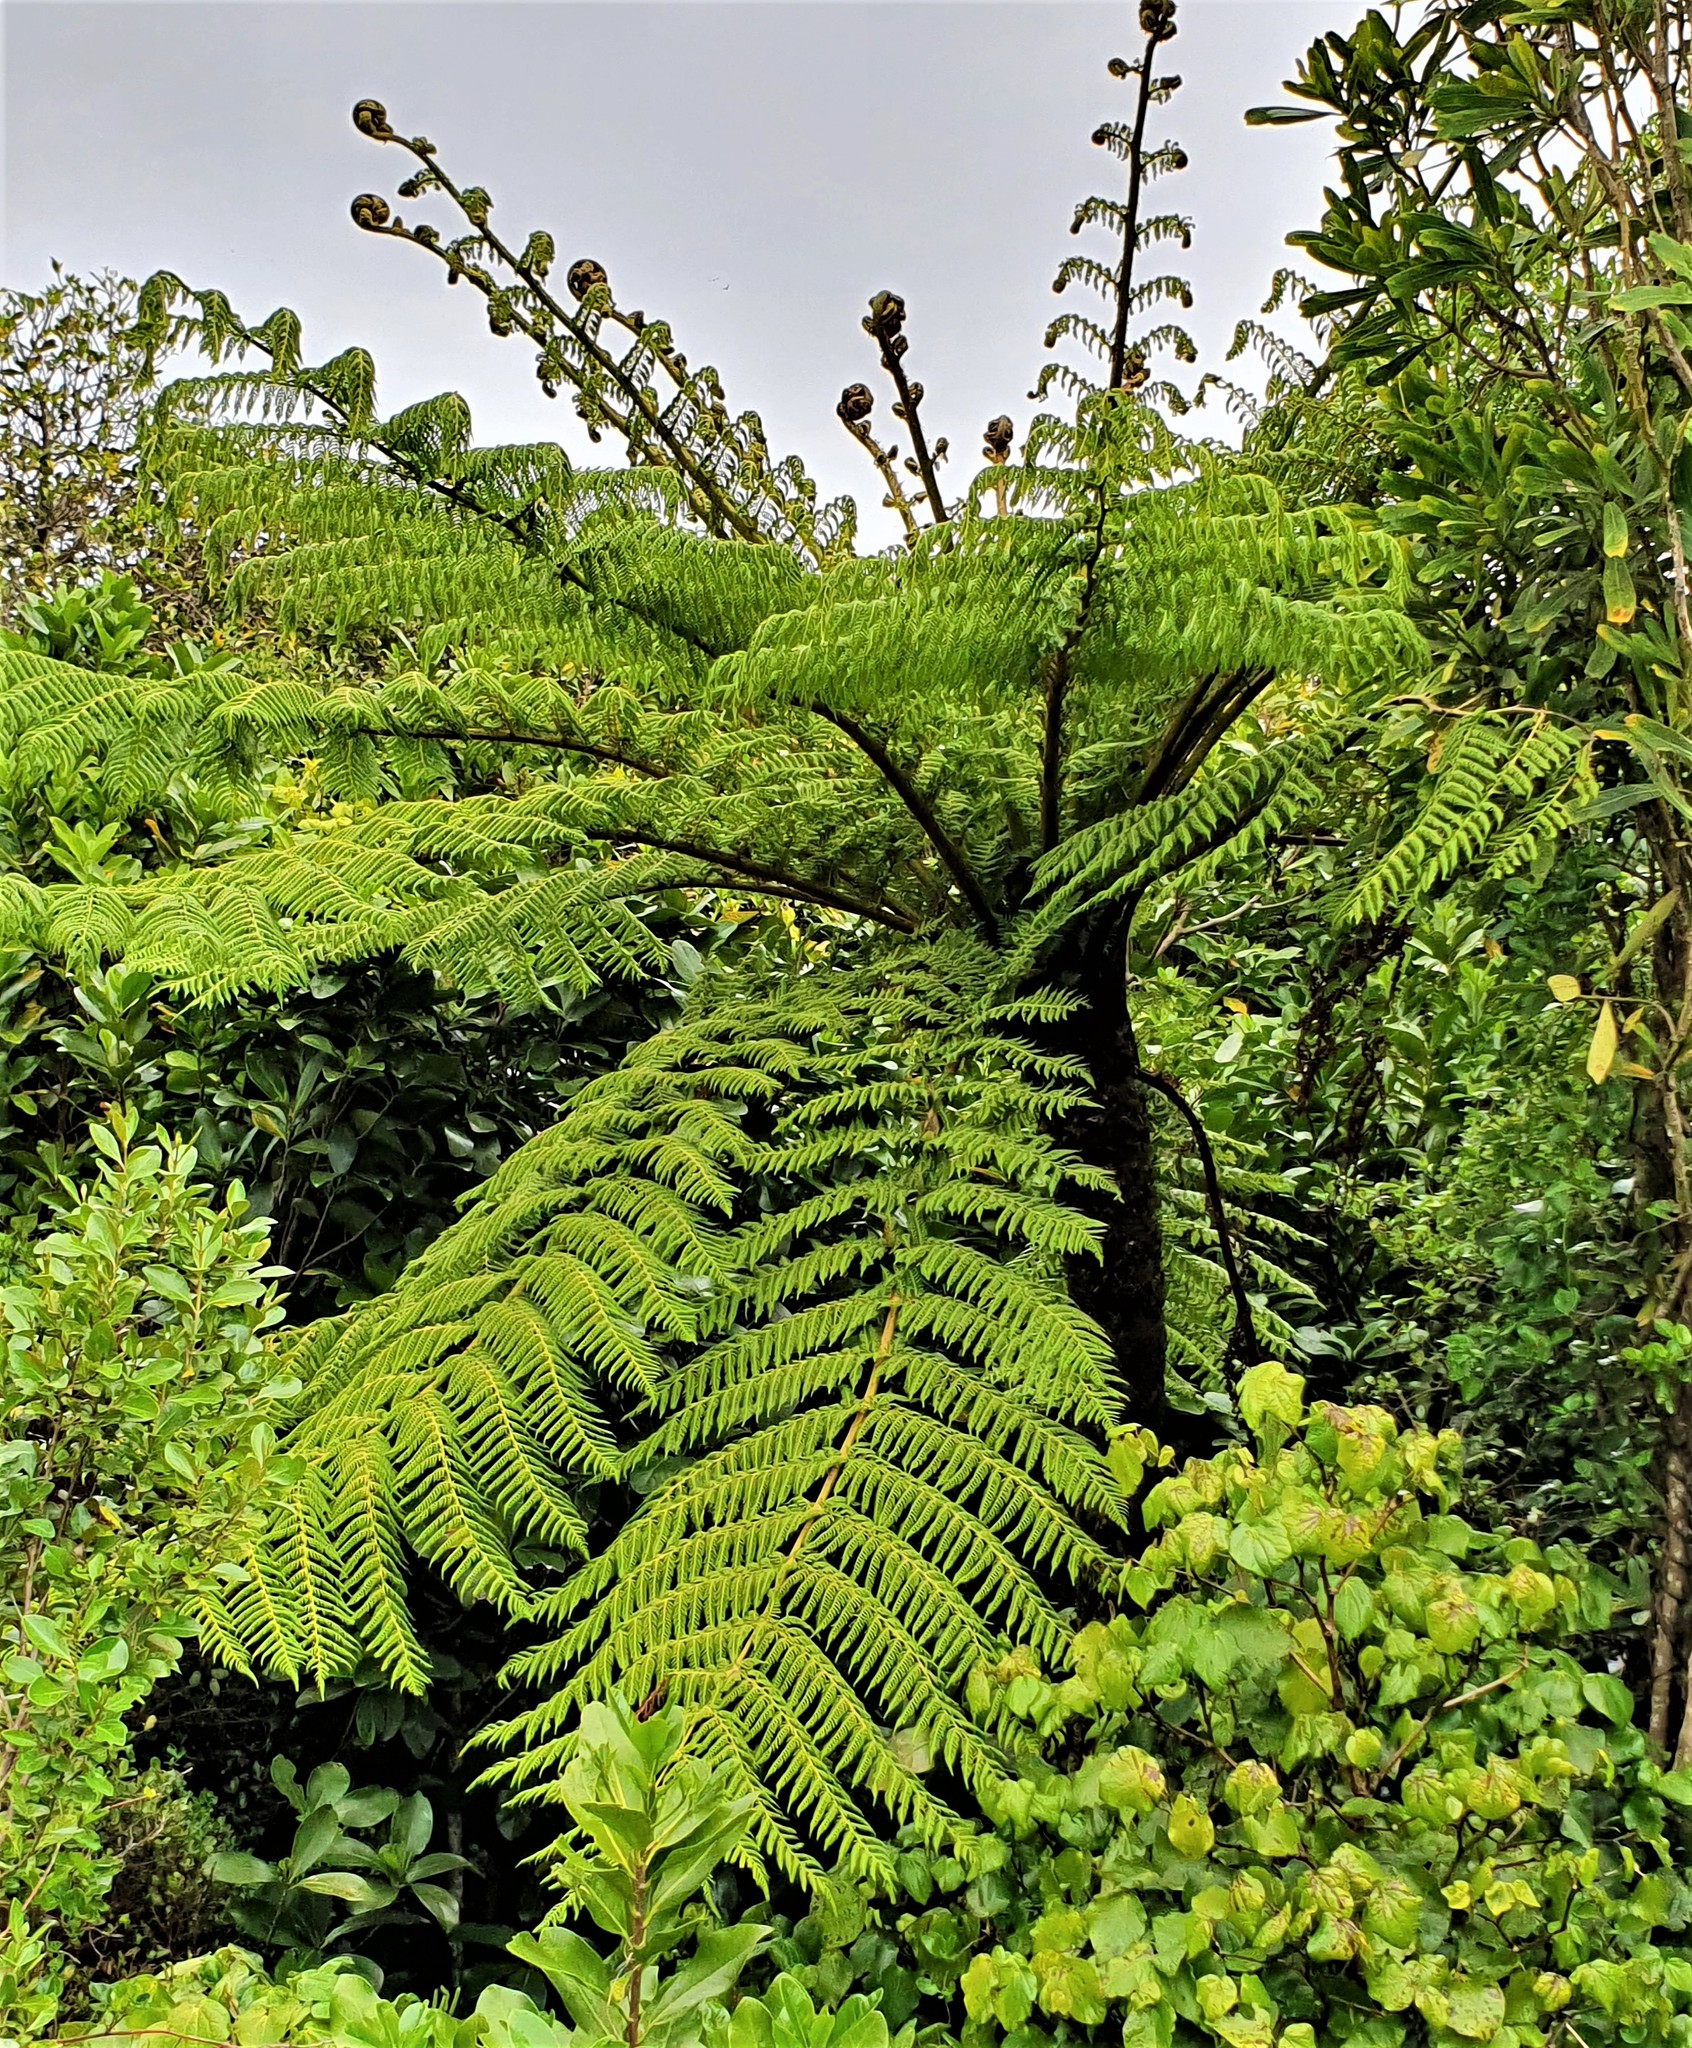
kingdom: Plantae
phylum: Tracheophyta
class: Polypodiopsida
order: Cyatheales
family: Cyatheaceae
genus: Cyathea
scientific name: Cyathea cunninghamii
